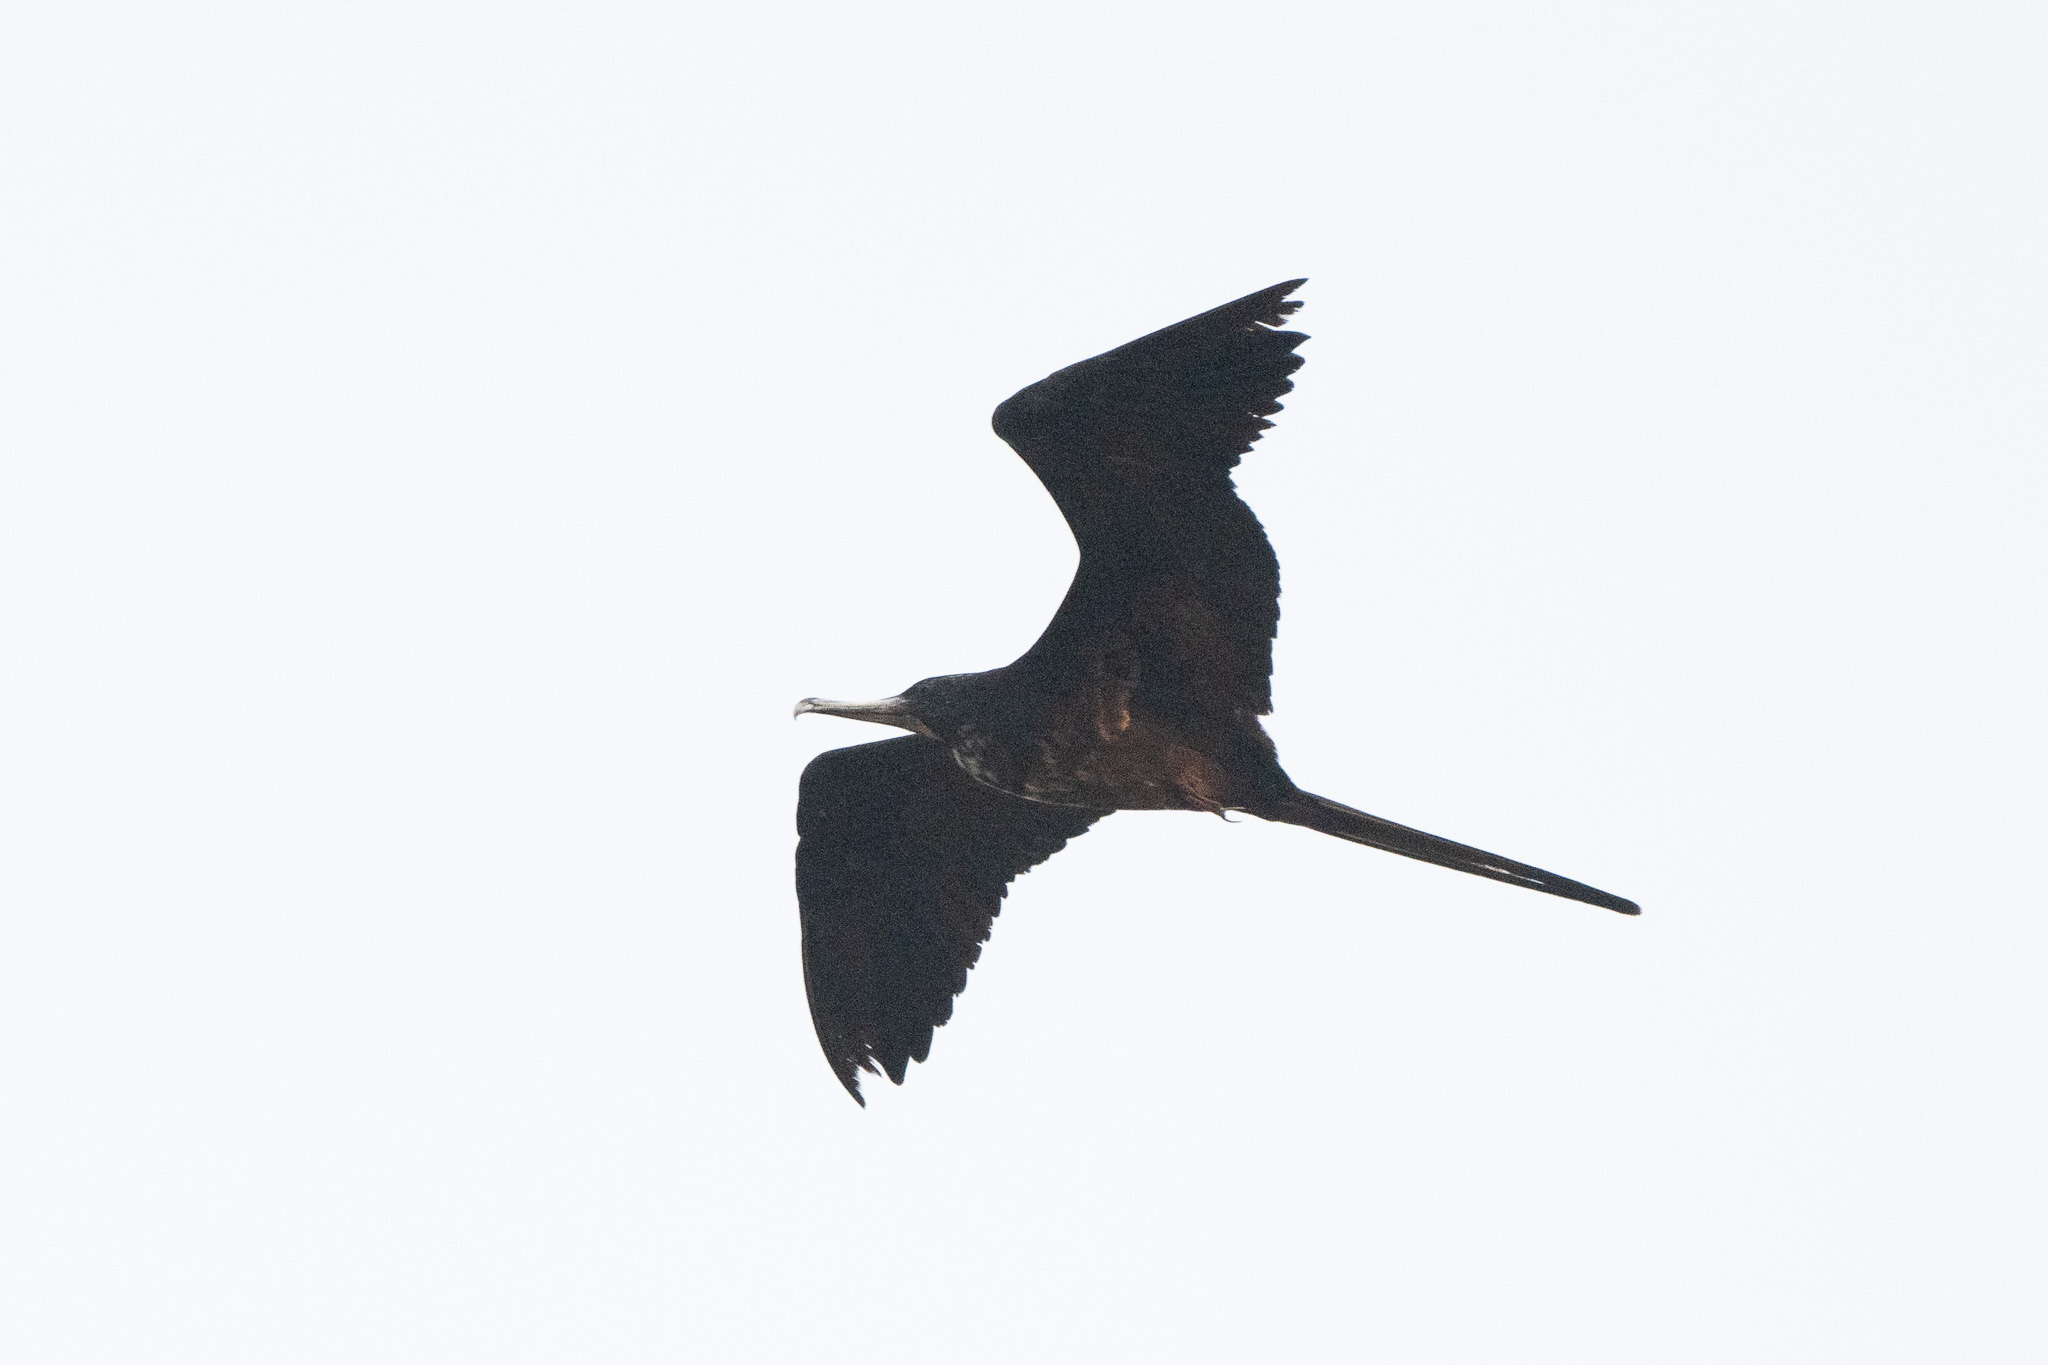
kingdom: Animalia
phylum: Chordata
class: Aves
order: Suliformes
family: Fregatidae
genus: Fregata
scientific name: Fregata magnificens
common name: Magnificent frigatebird
